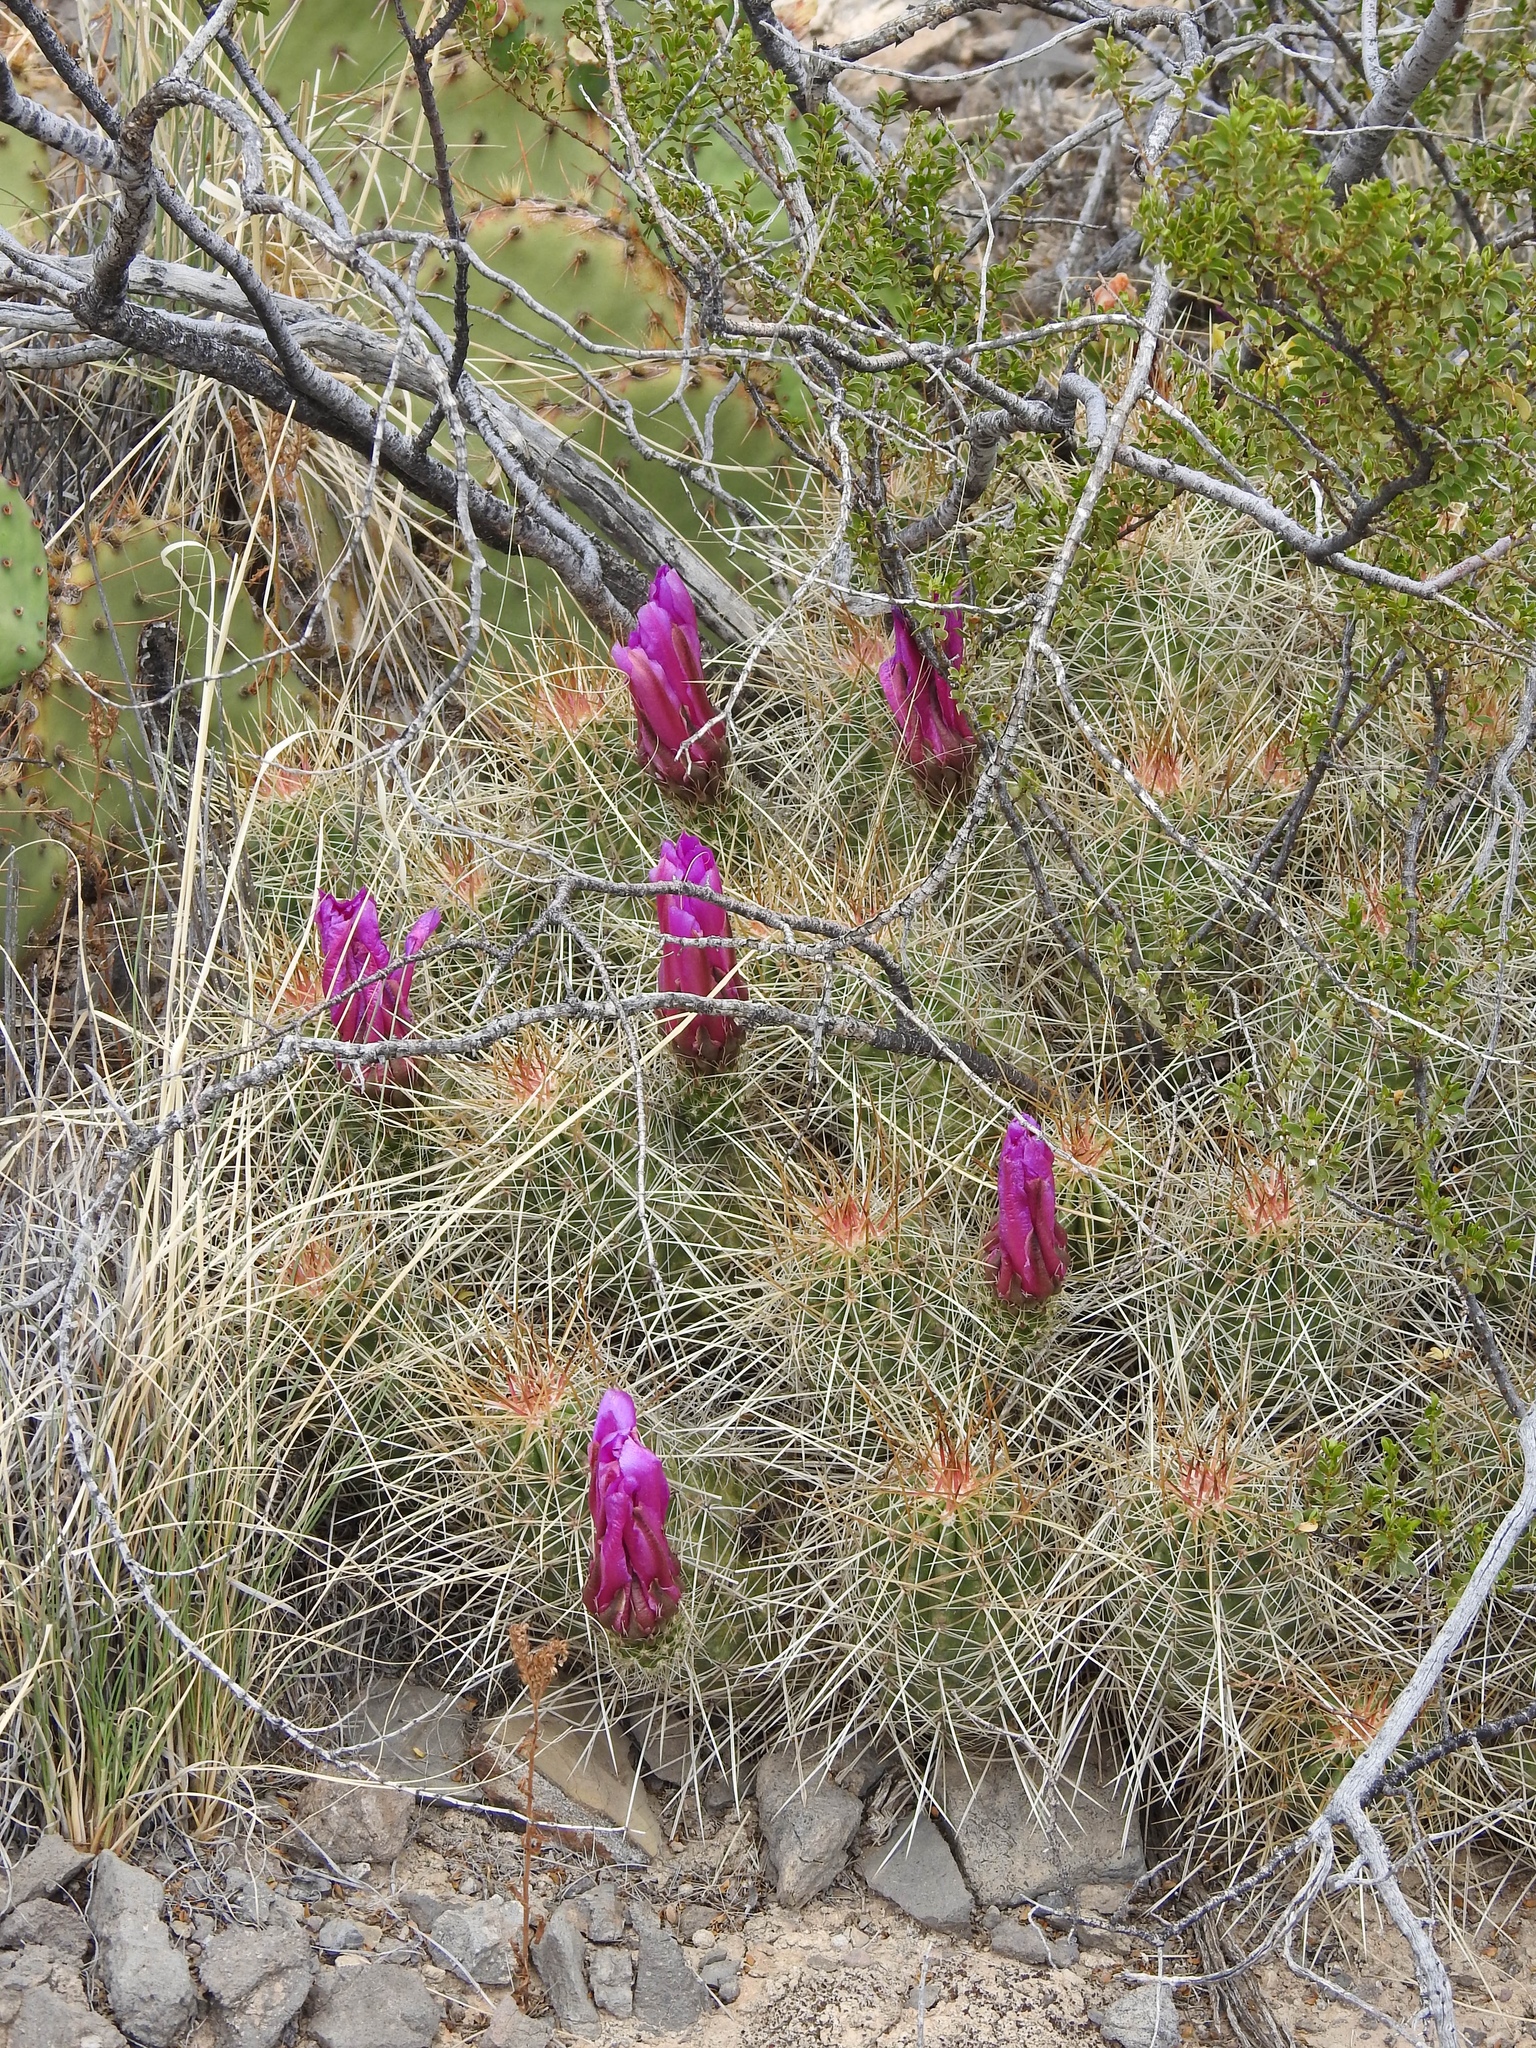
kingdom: Plantae
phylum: Tracheophyta
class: Magnoliopsida
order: Caryophyllales
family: Cactaceae
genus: Echinocereus
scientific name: Echinocereus stramineus
